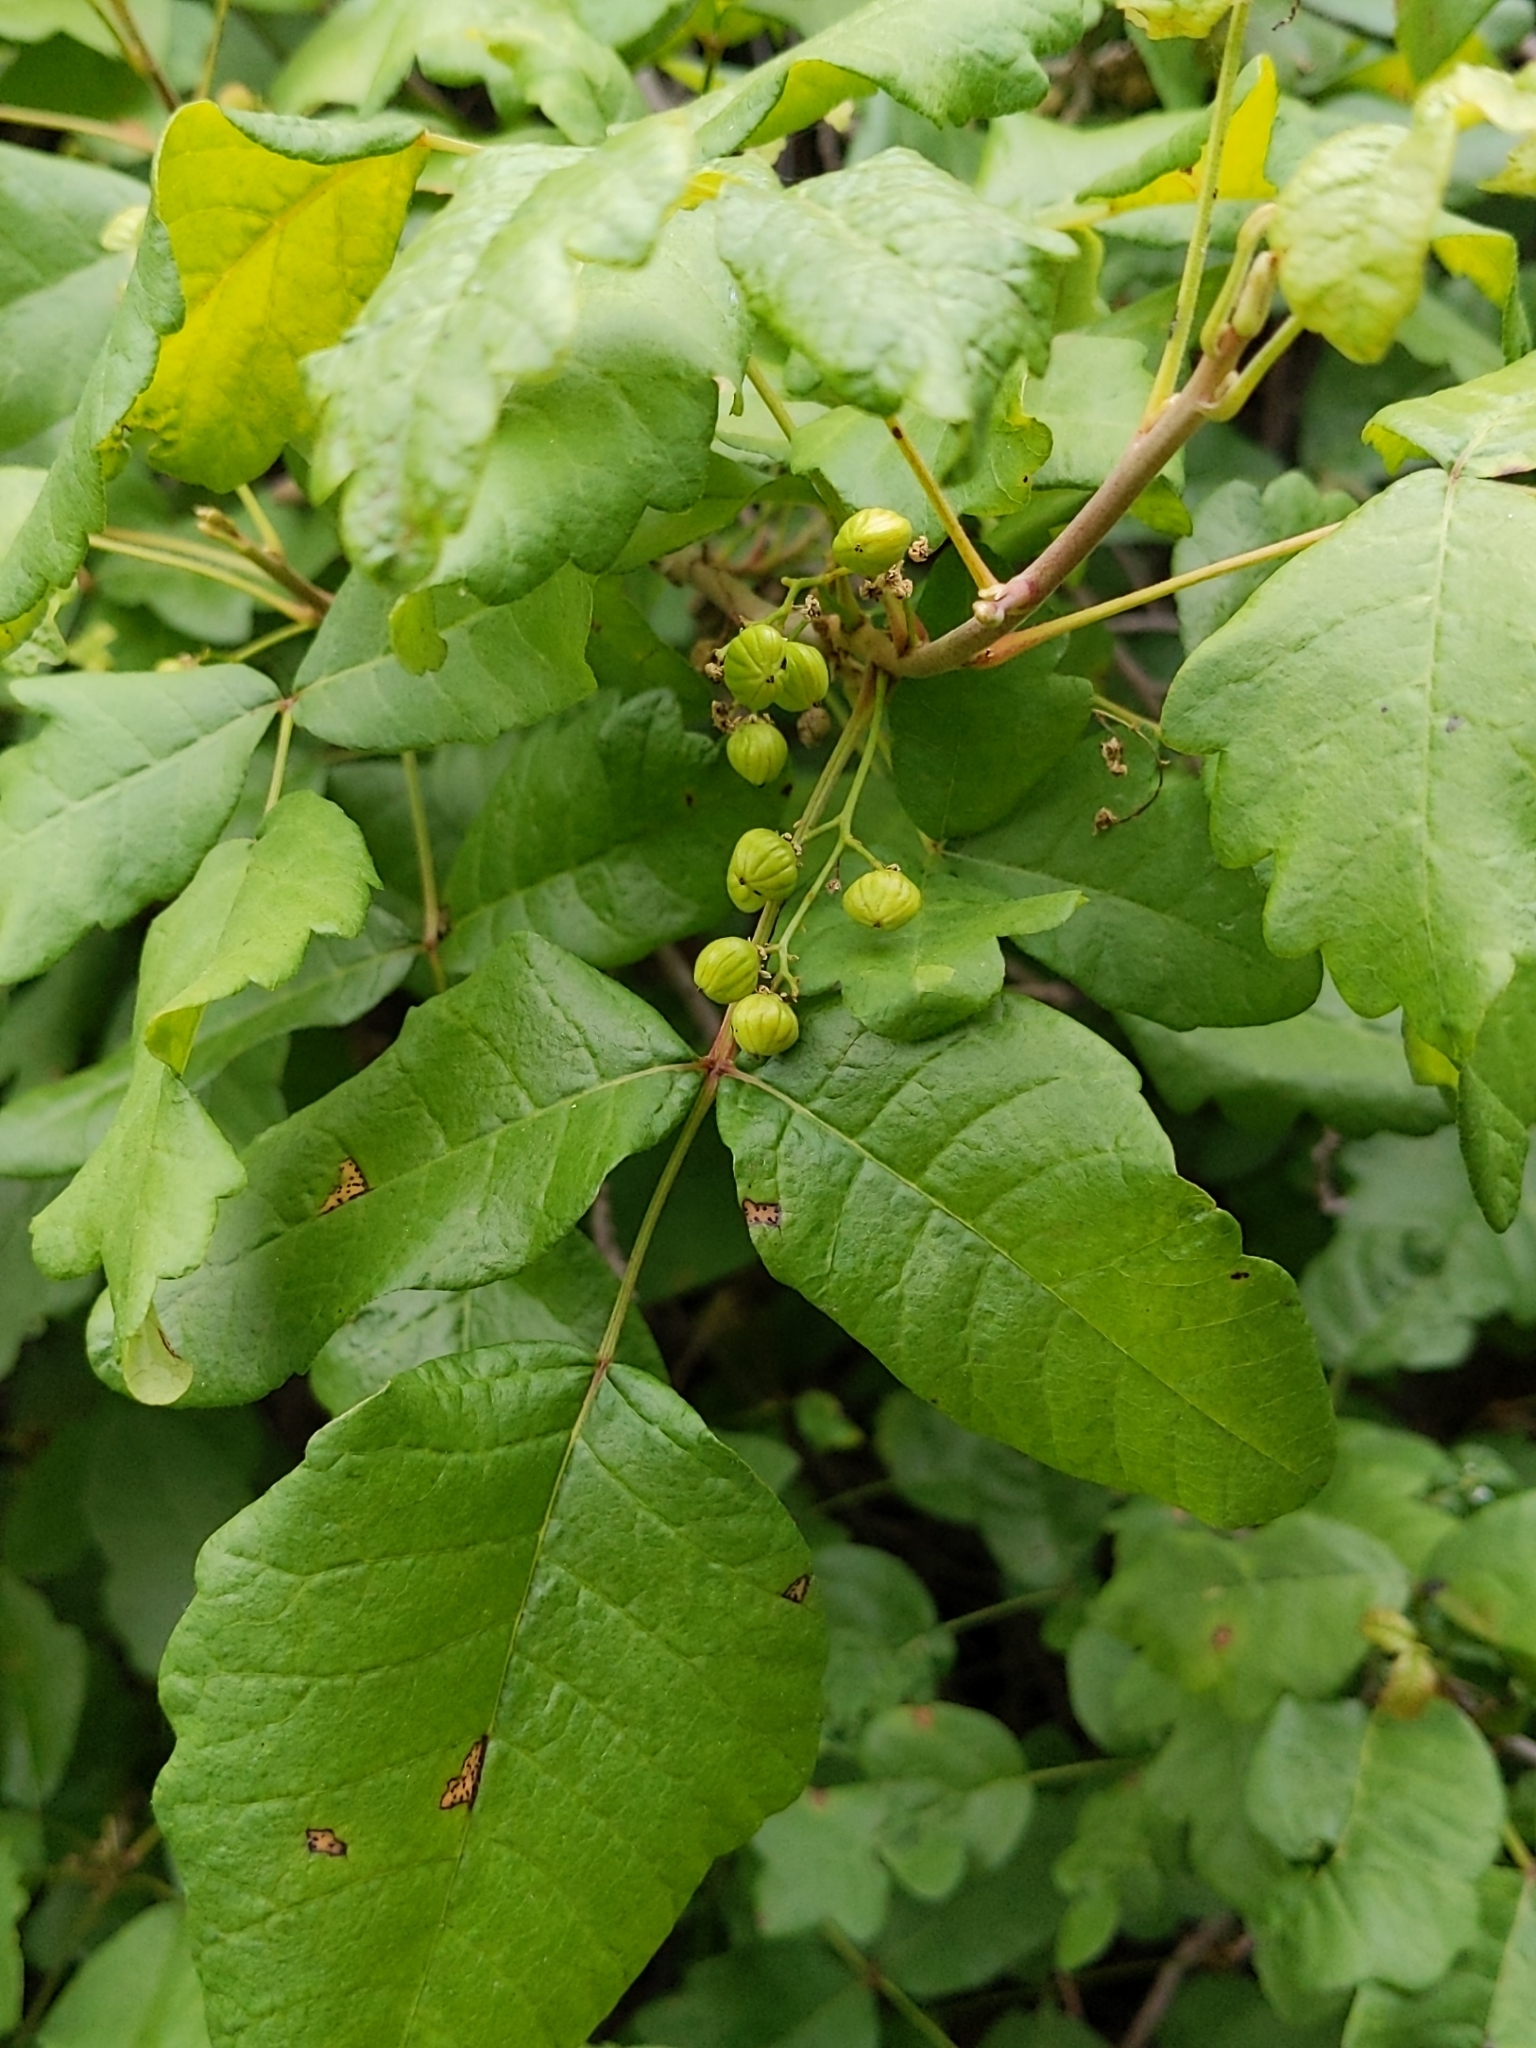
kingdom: Plantae
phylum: Tracheophyta
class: Magnoliopsida
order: Sapindales
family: Anacardiaceae
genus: Toxicodendron
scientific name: Toxicodendron diversilobum
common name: Pacific poison-oak
